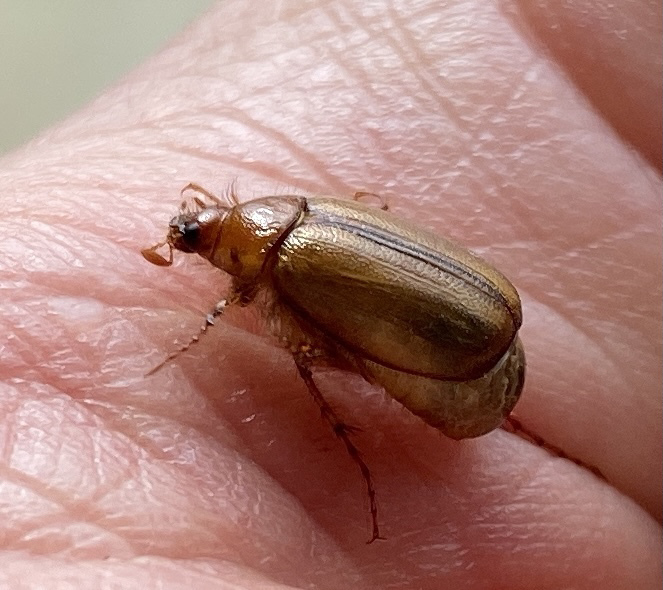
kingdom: Animalia
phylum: Arthropoda
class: Insecta
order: Coleoptera
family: Scarabaeidae
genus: Costelytra
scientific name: Costelytra zealandica
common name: New zealand grass grub
